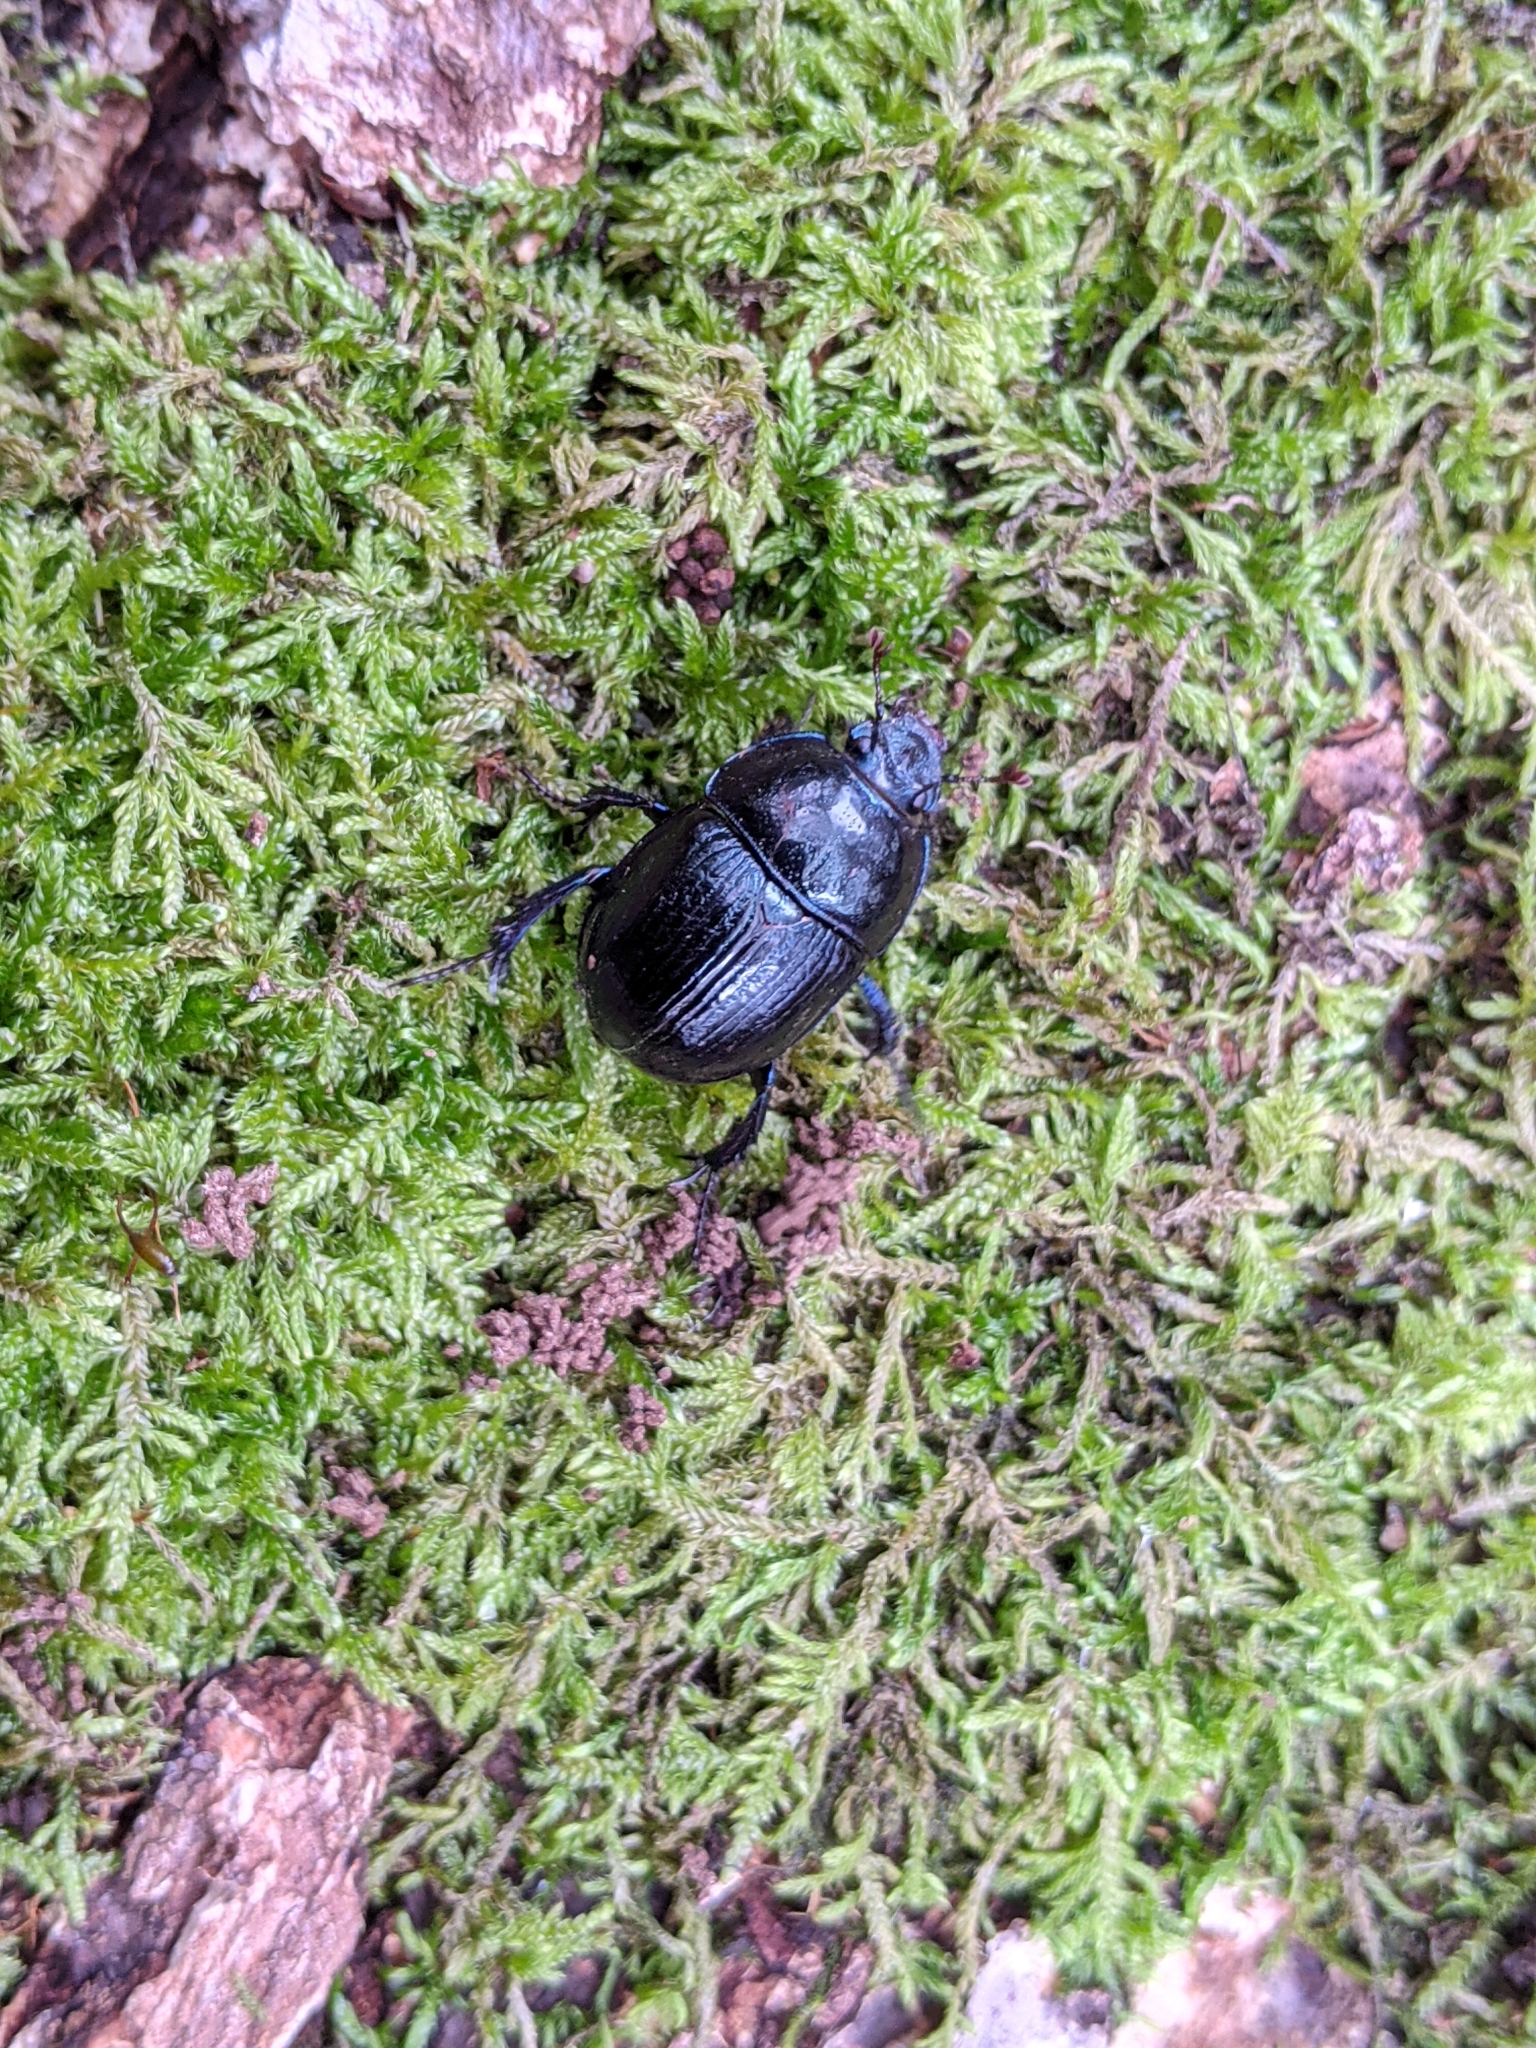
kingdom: Animalia
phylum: Arthropoda
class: Insecta
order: Coleoptera
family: Geotrupidae
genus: Anoplotrupes
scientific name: Anoplotrupes stercorosus
